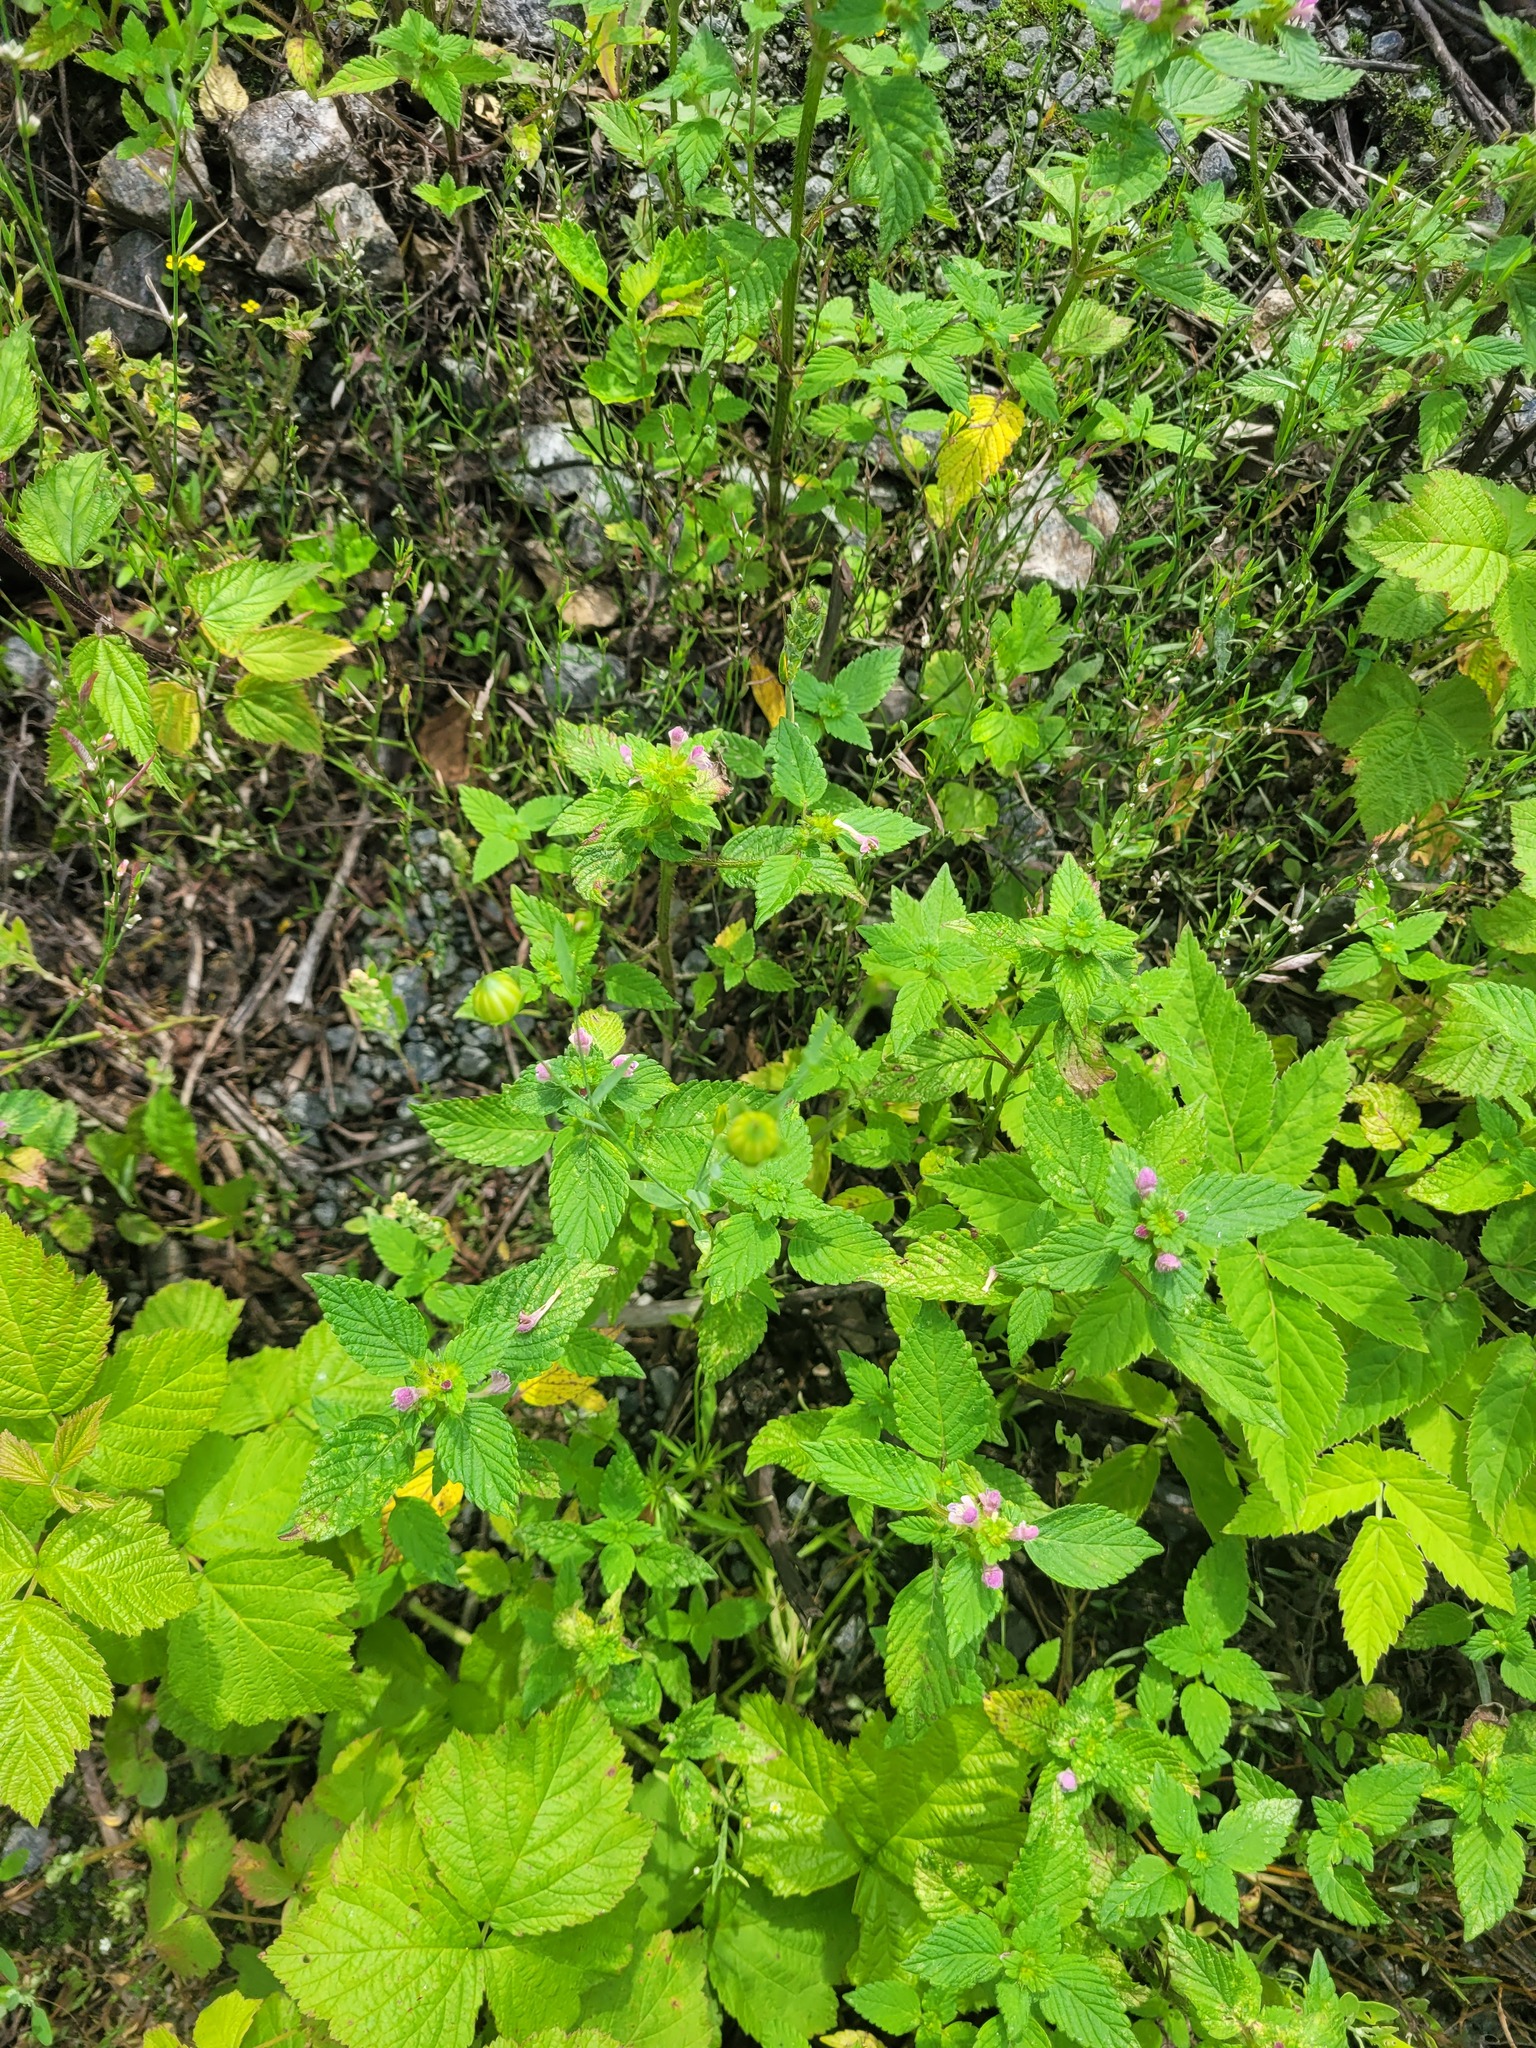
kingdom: Plantae
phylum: Tracheophyta
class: Magnoliopsida
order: Lamiales
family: Lamiaceae
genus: Galeopsis
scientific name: Galeopsis bifida
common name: Bifid hemp-nettle
